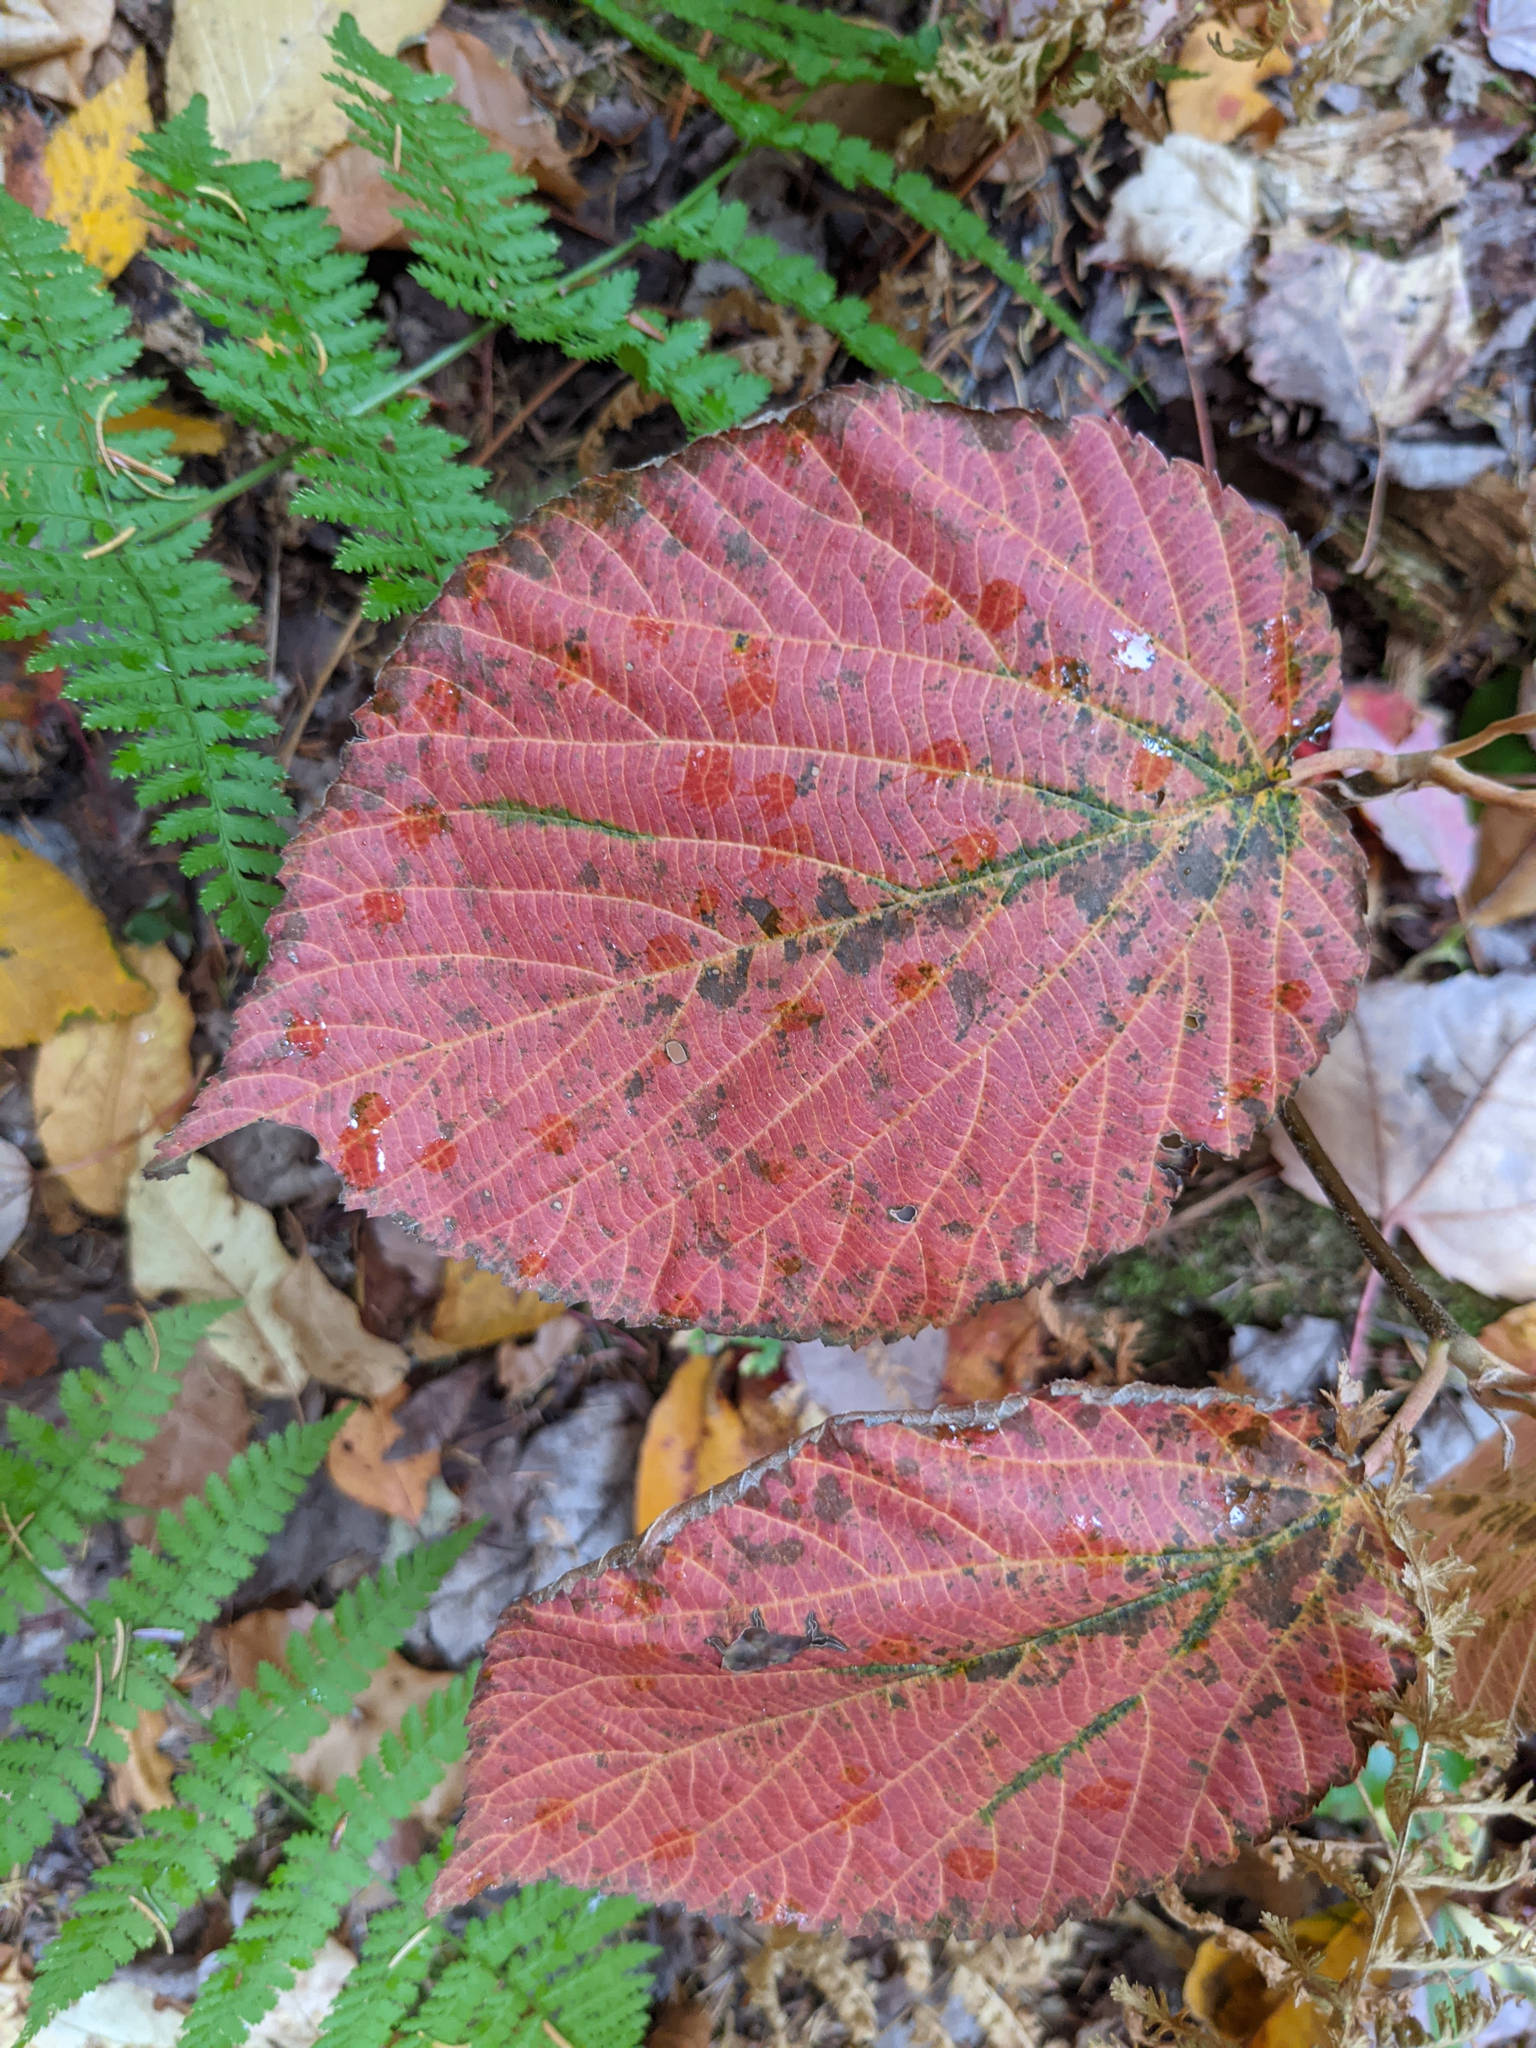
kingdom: Plantae
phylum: Tracheophyta
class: Magnoliopsida
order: Dipsacales
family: Viburnaceae
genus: Viburnum
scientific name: Viburnum lantanoides
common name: Hobblebush
